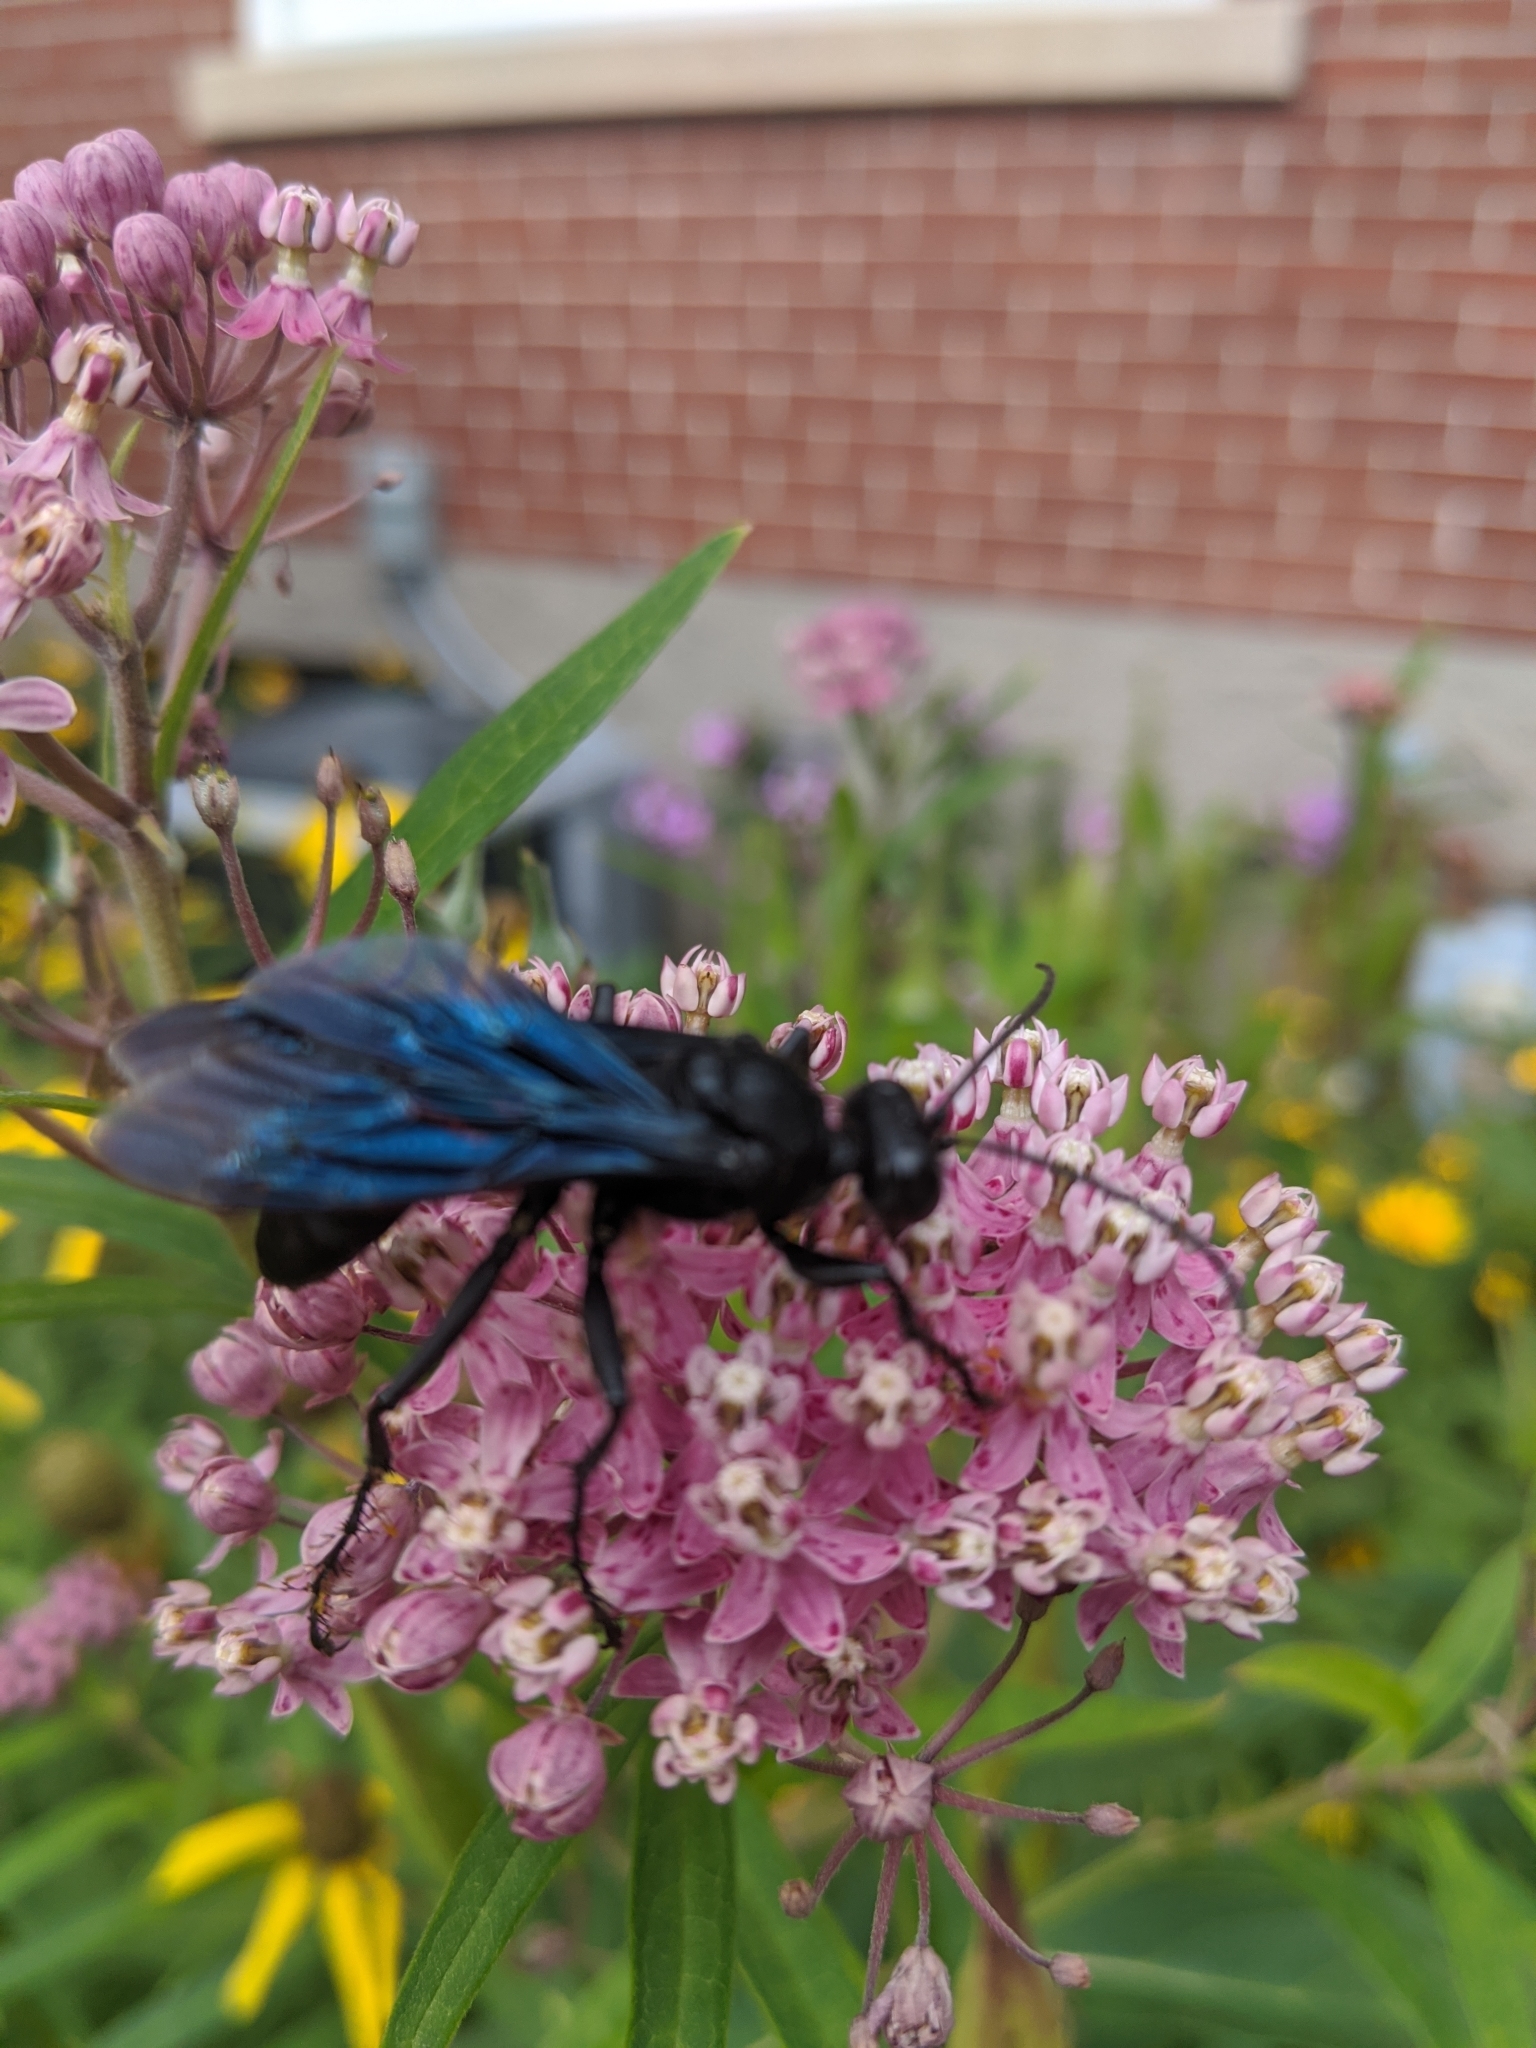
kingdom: Animalia
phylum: Arthropoda
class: Insecta
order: Hymenoptera
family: Sphecidae
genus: Sphex
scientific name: Sphex pensylvanicus
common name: Great black digger wasp
